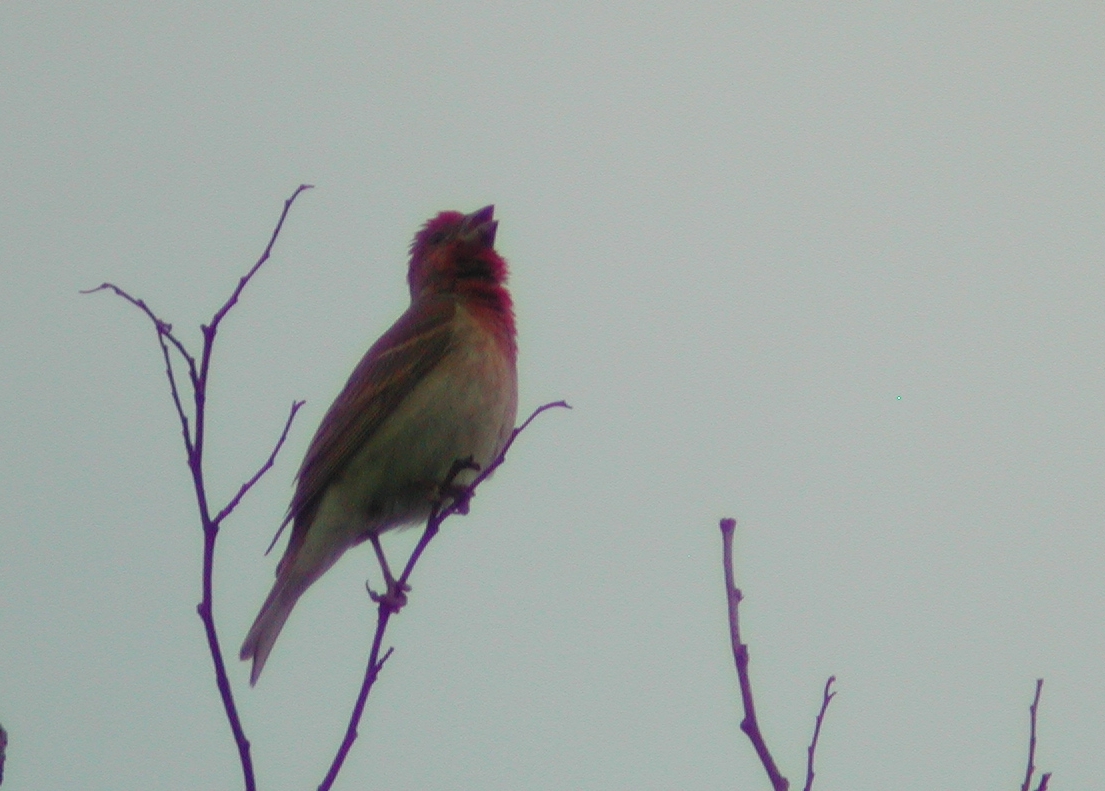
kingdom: Animalia
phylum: Chordata
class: Aves
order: Passeriformes
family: Fringillidae
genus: Carpodacus
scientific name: Carpodacus erythrinus
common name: Common rosefinch
